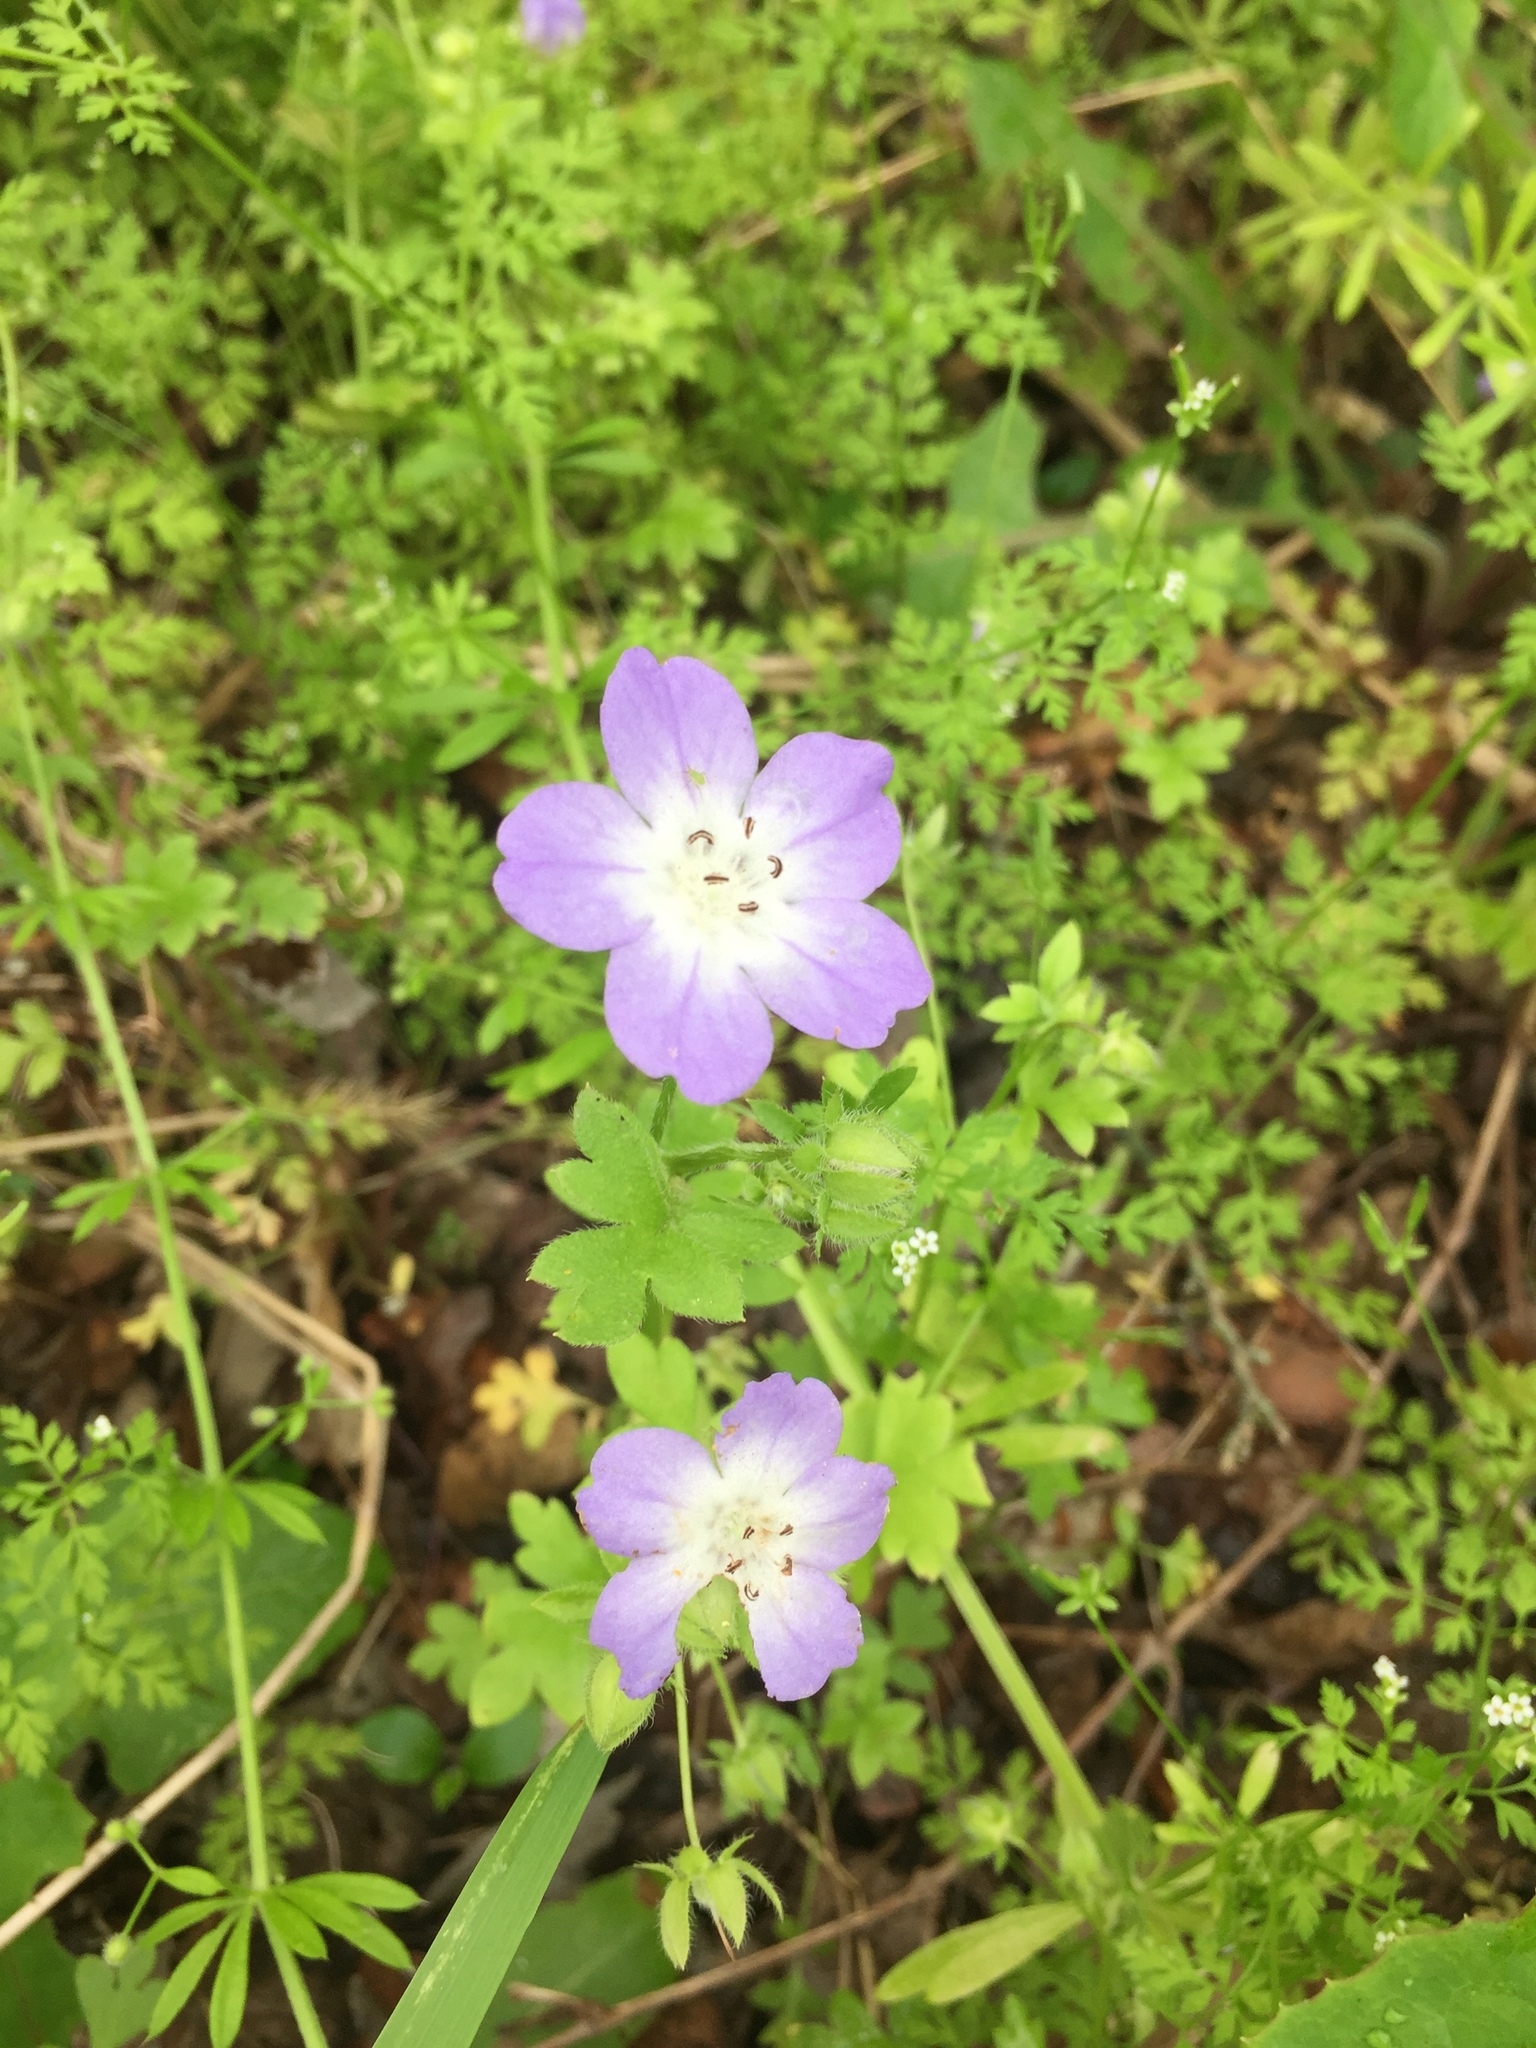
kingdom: Plantae
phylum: Tracheophyta
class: Magnoliopsida
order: Boraginales
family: Hydrophyllaceae
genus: Nemophila
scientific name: Nemophila phacelioides
